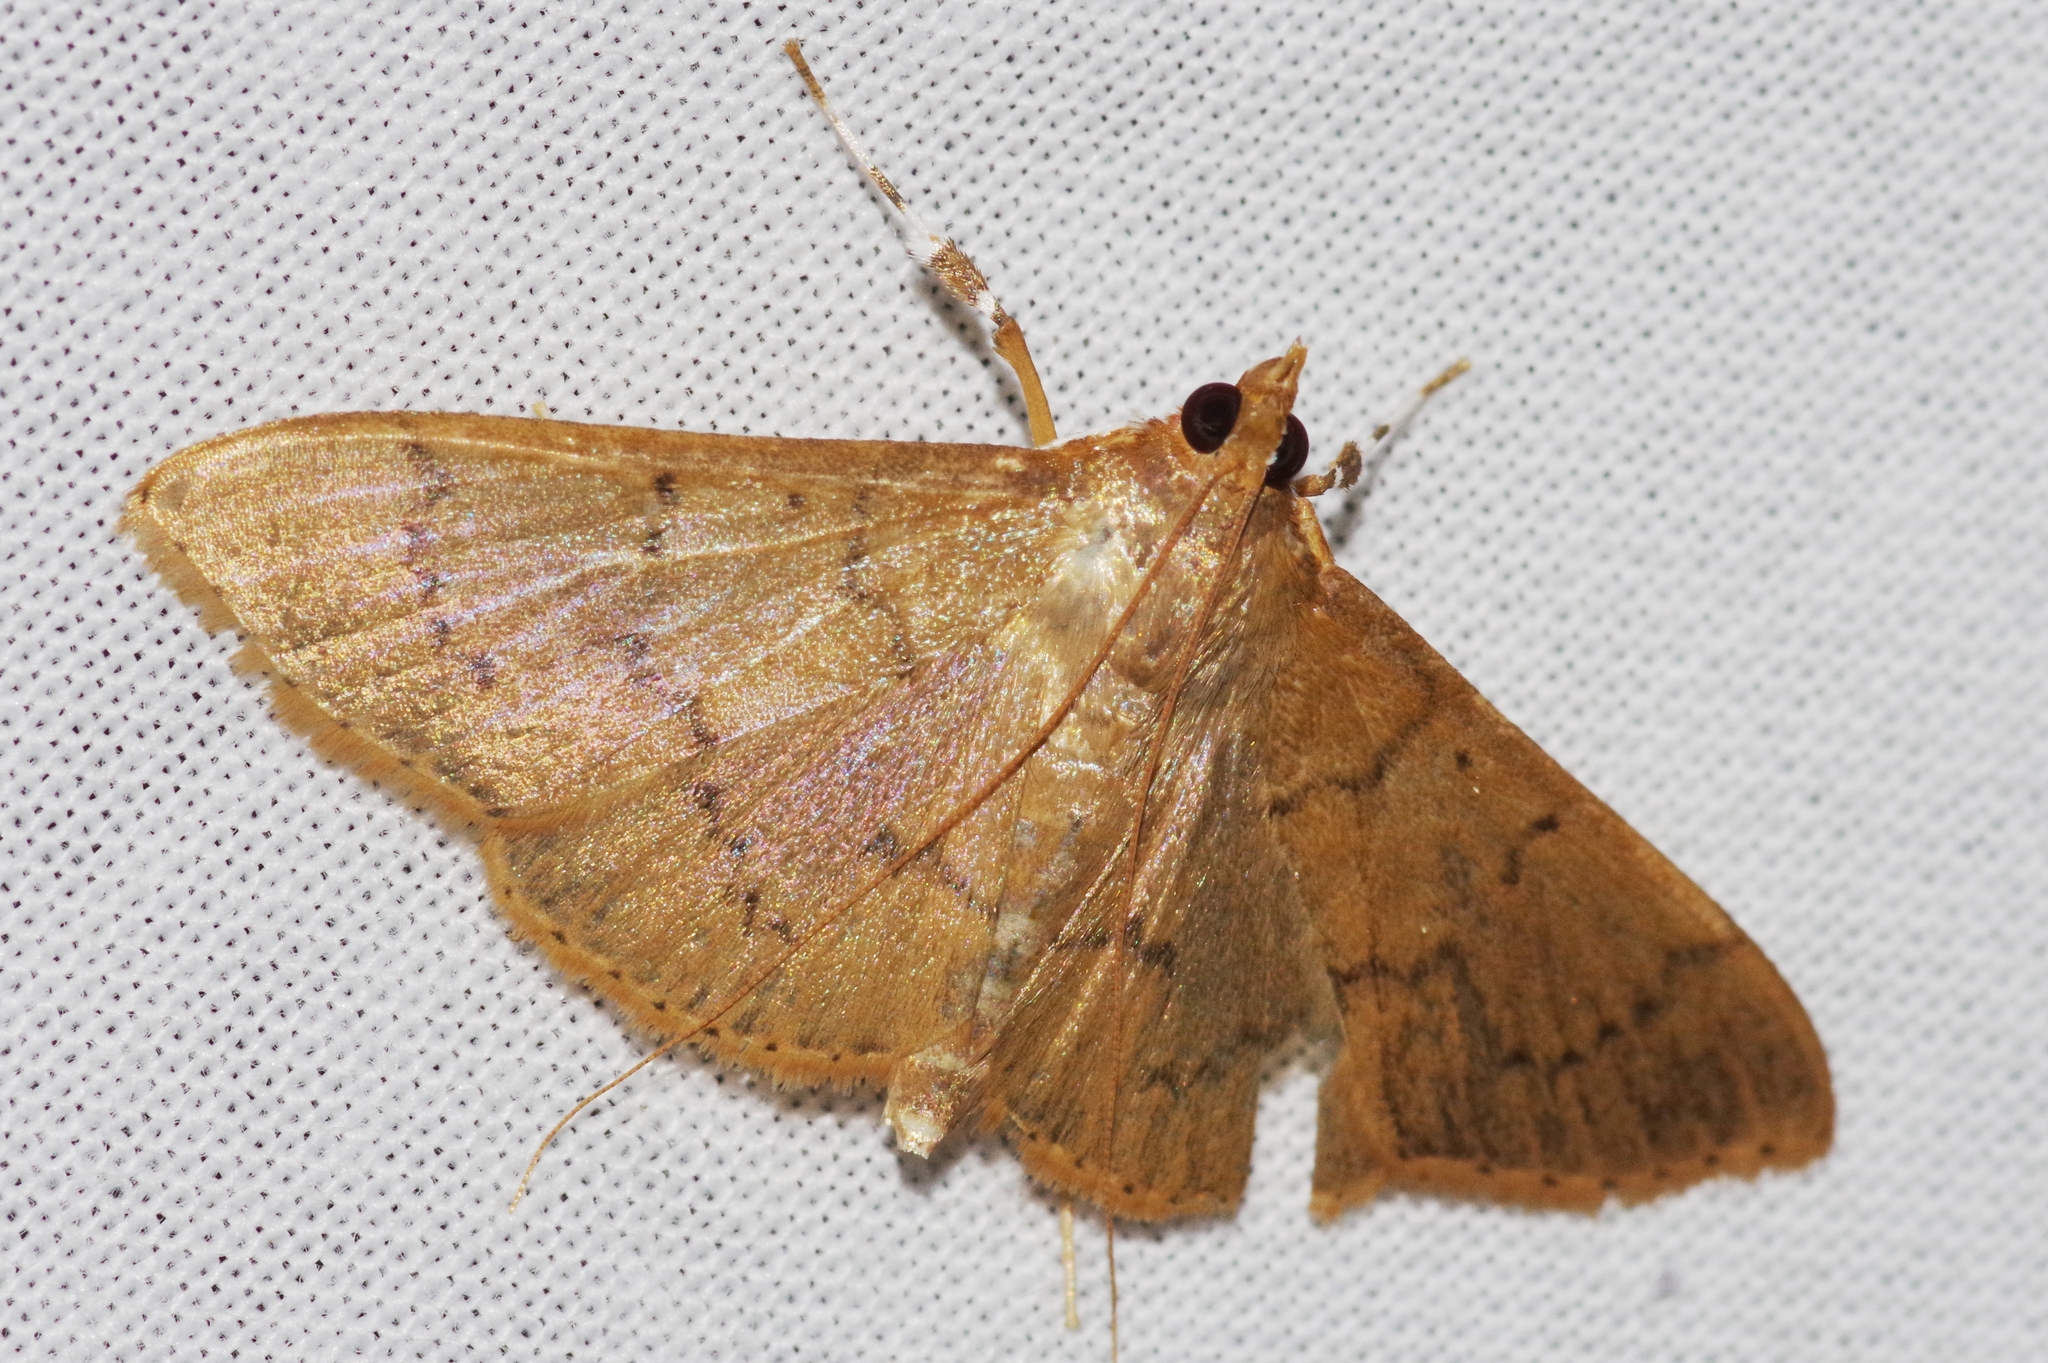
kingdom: Animalia
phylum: Arthropoda
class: Insecta
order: Lepidoptera
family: Crambidae
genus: Patania
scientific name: Patania
